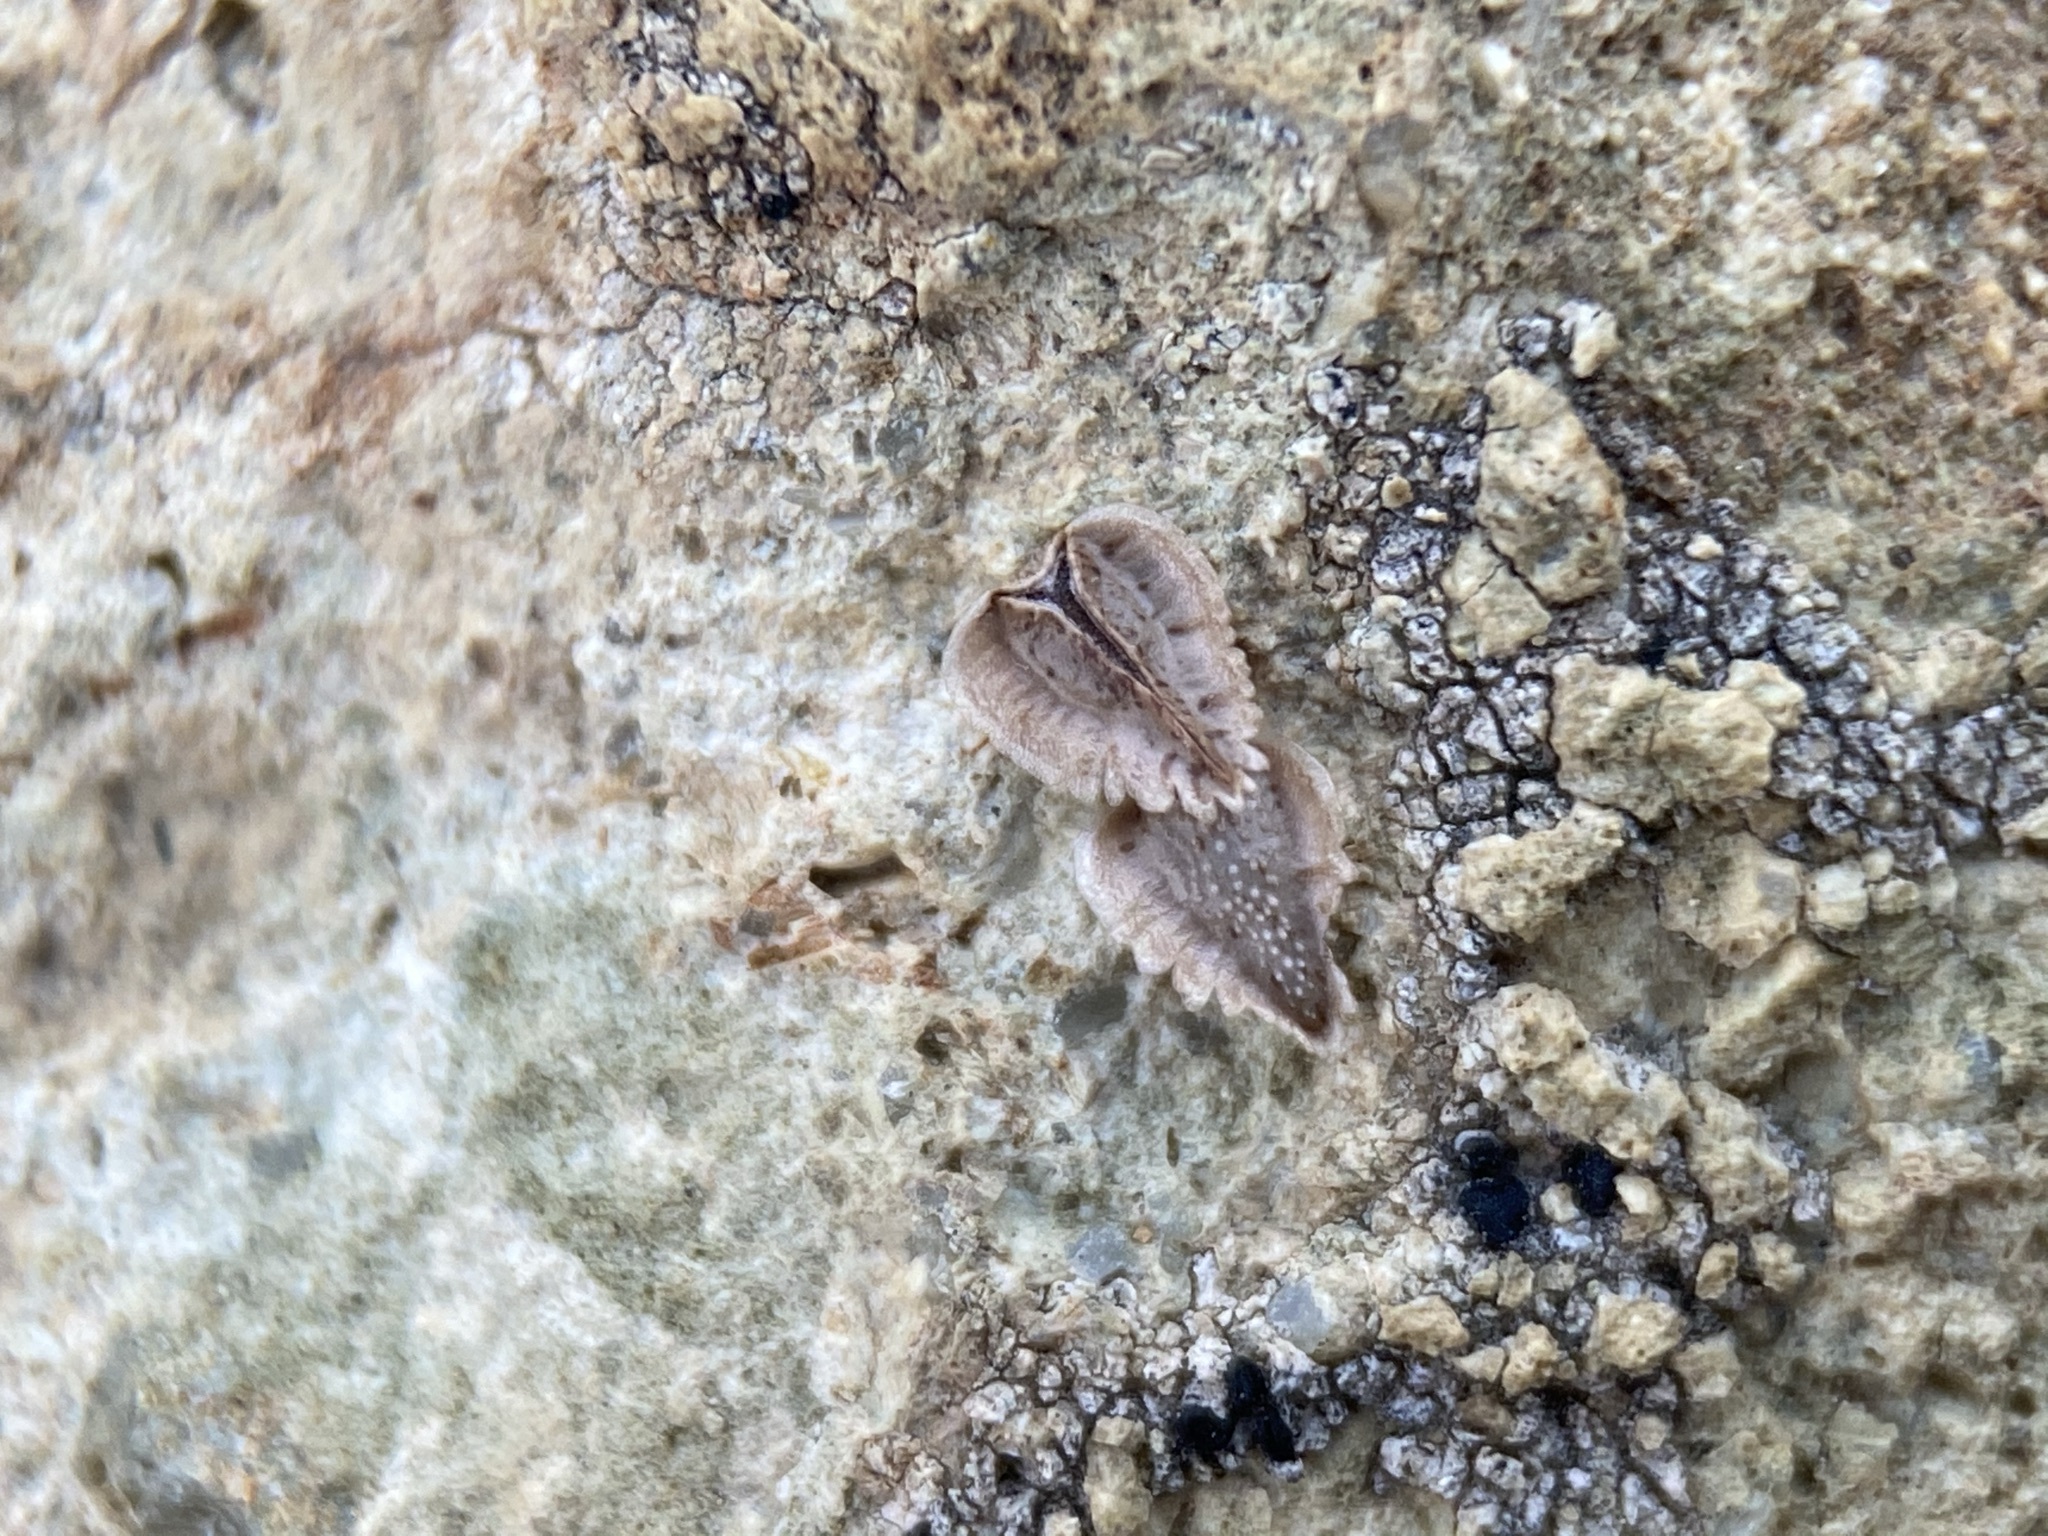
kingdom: Plantae
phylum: Tracheophyta
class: Magnoliopsida
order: Boraginales
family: Boraginaceae
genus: Cryptantha
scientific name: Cryptantha pterocarya
